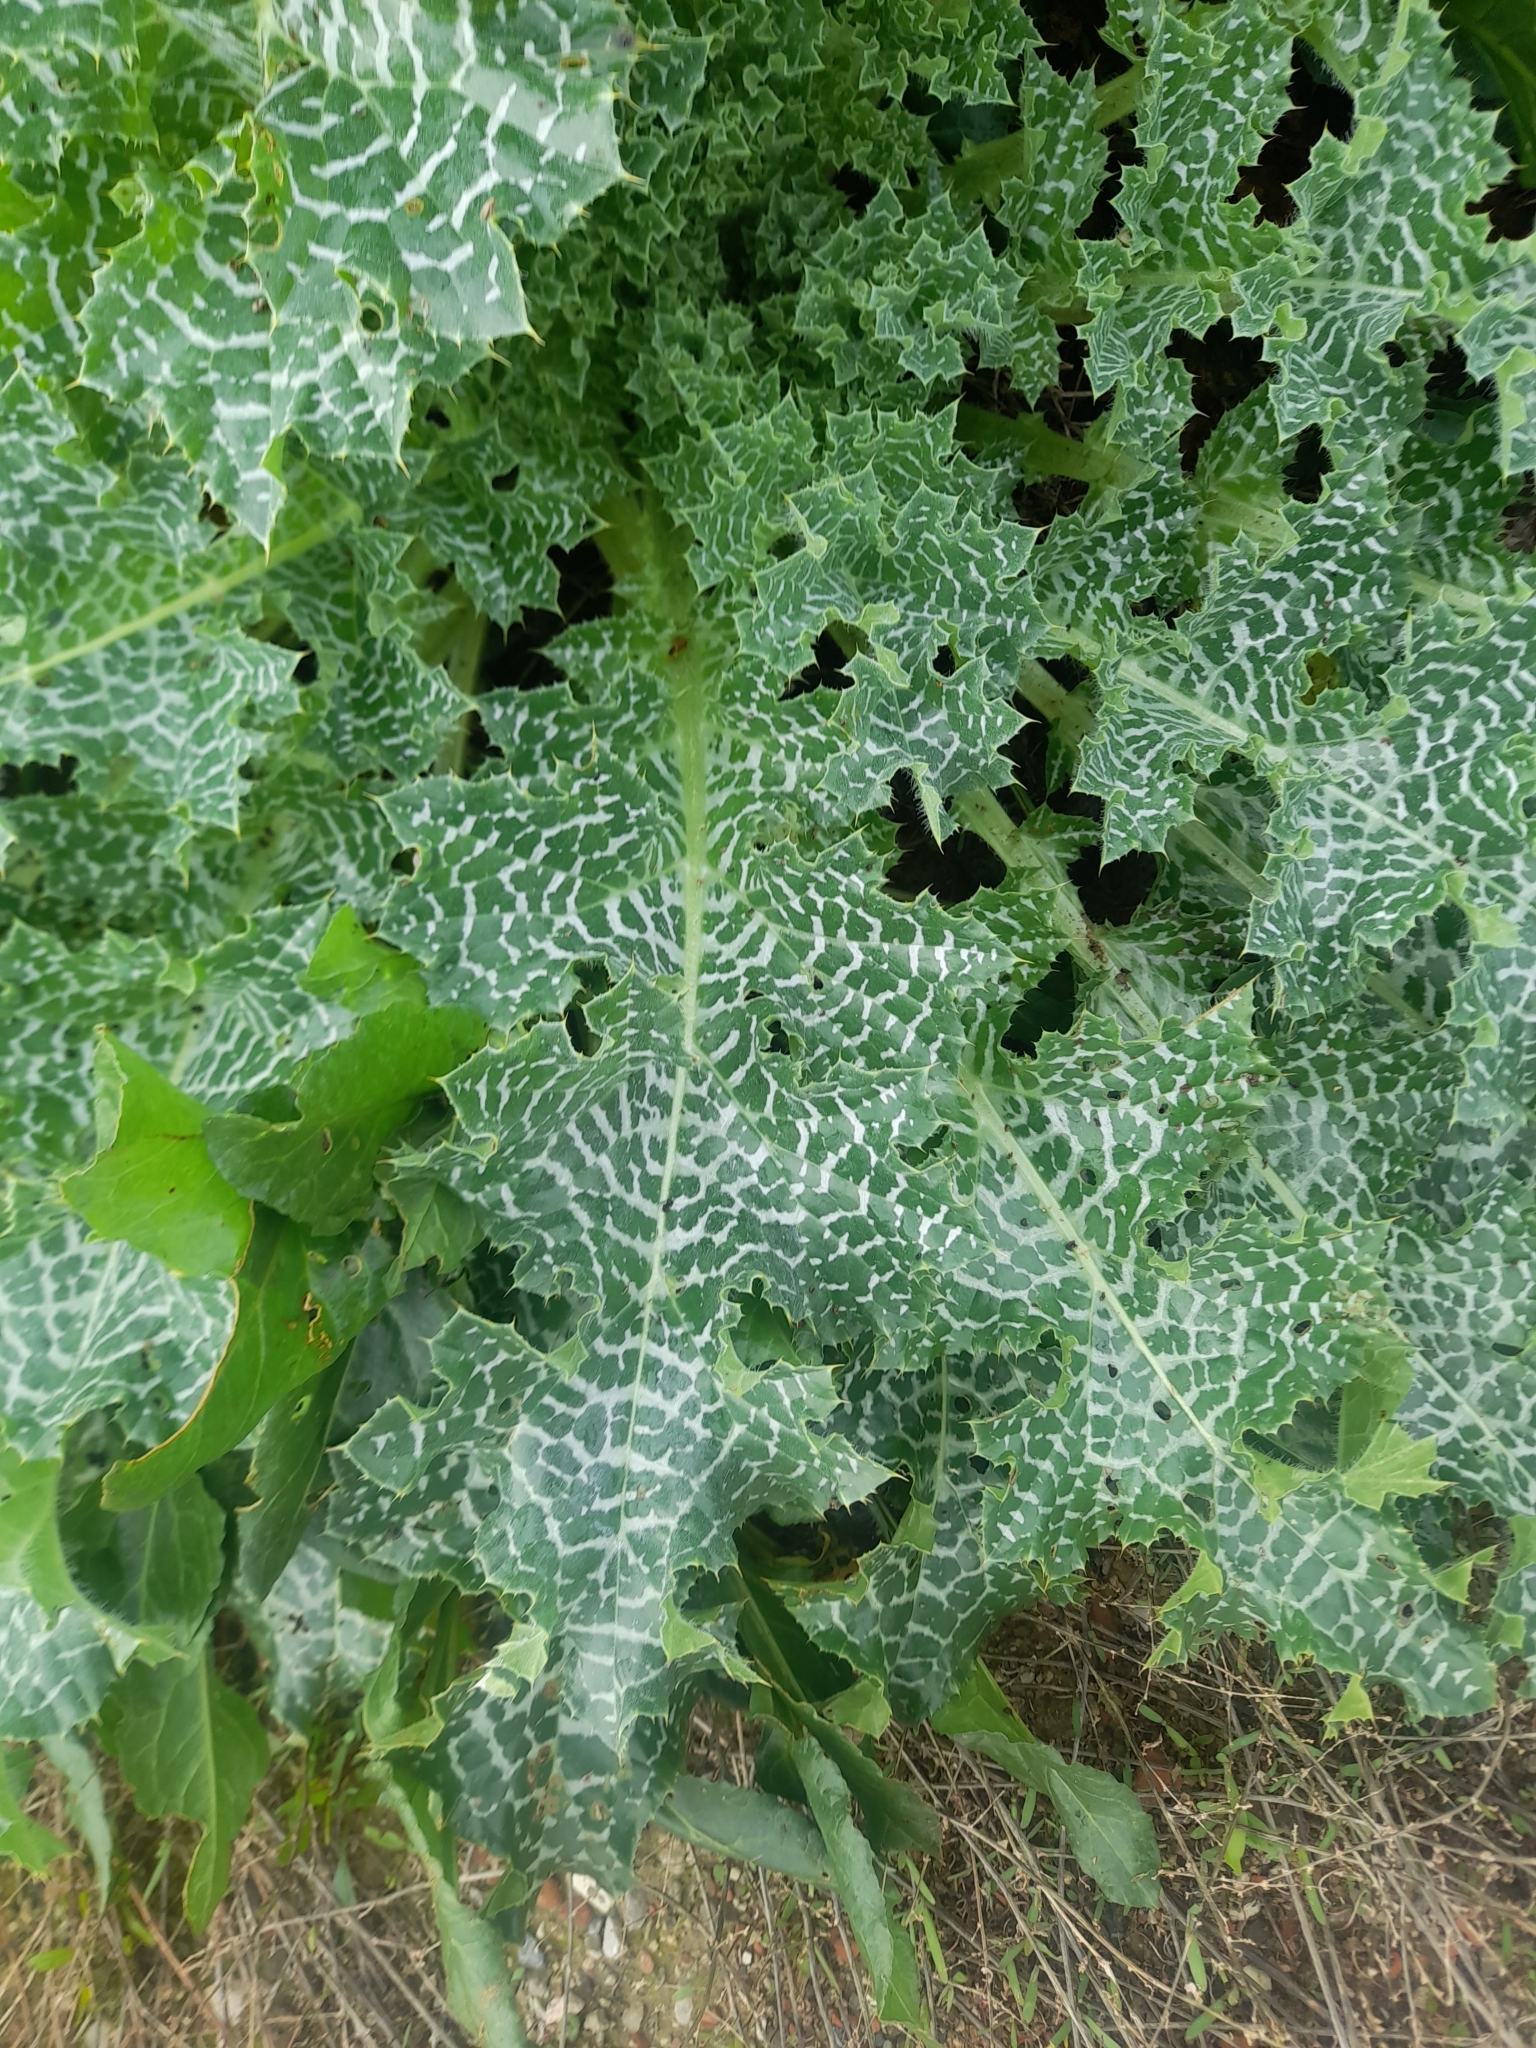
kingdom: Plantae
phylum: Tracheophyta
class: Magnoliopsida
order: Asterales
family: Asteraceae
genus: Silybum
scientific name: Silybum marianum
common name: Milk thistle
